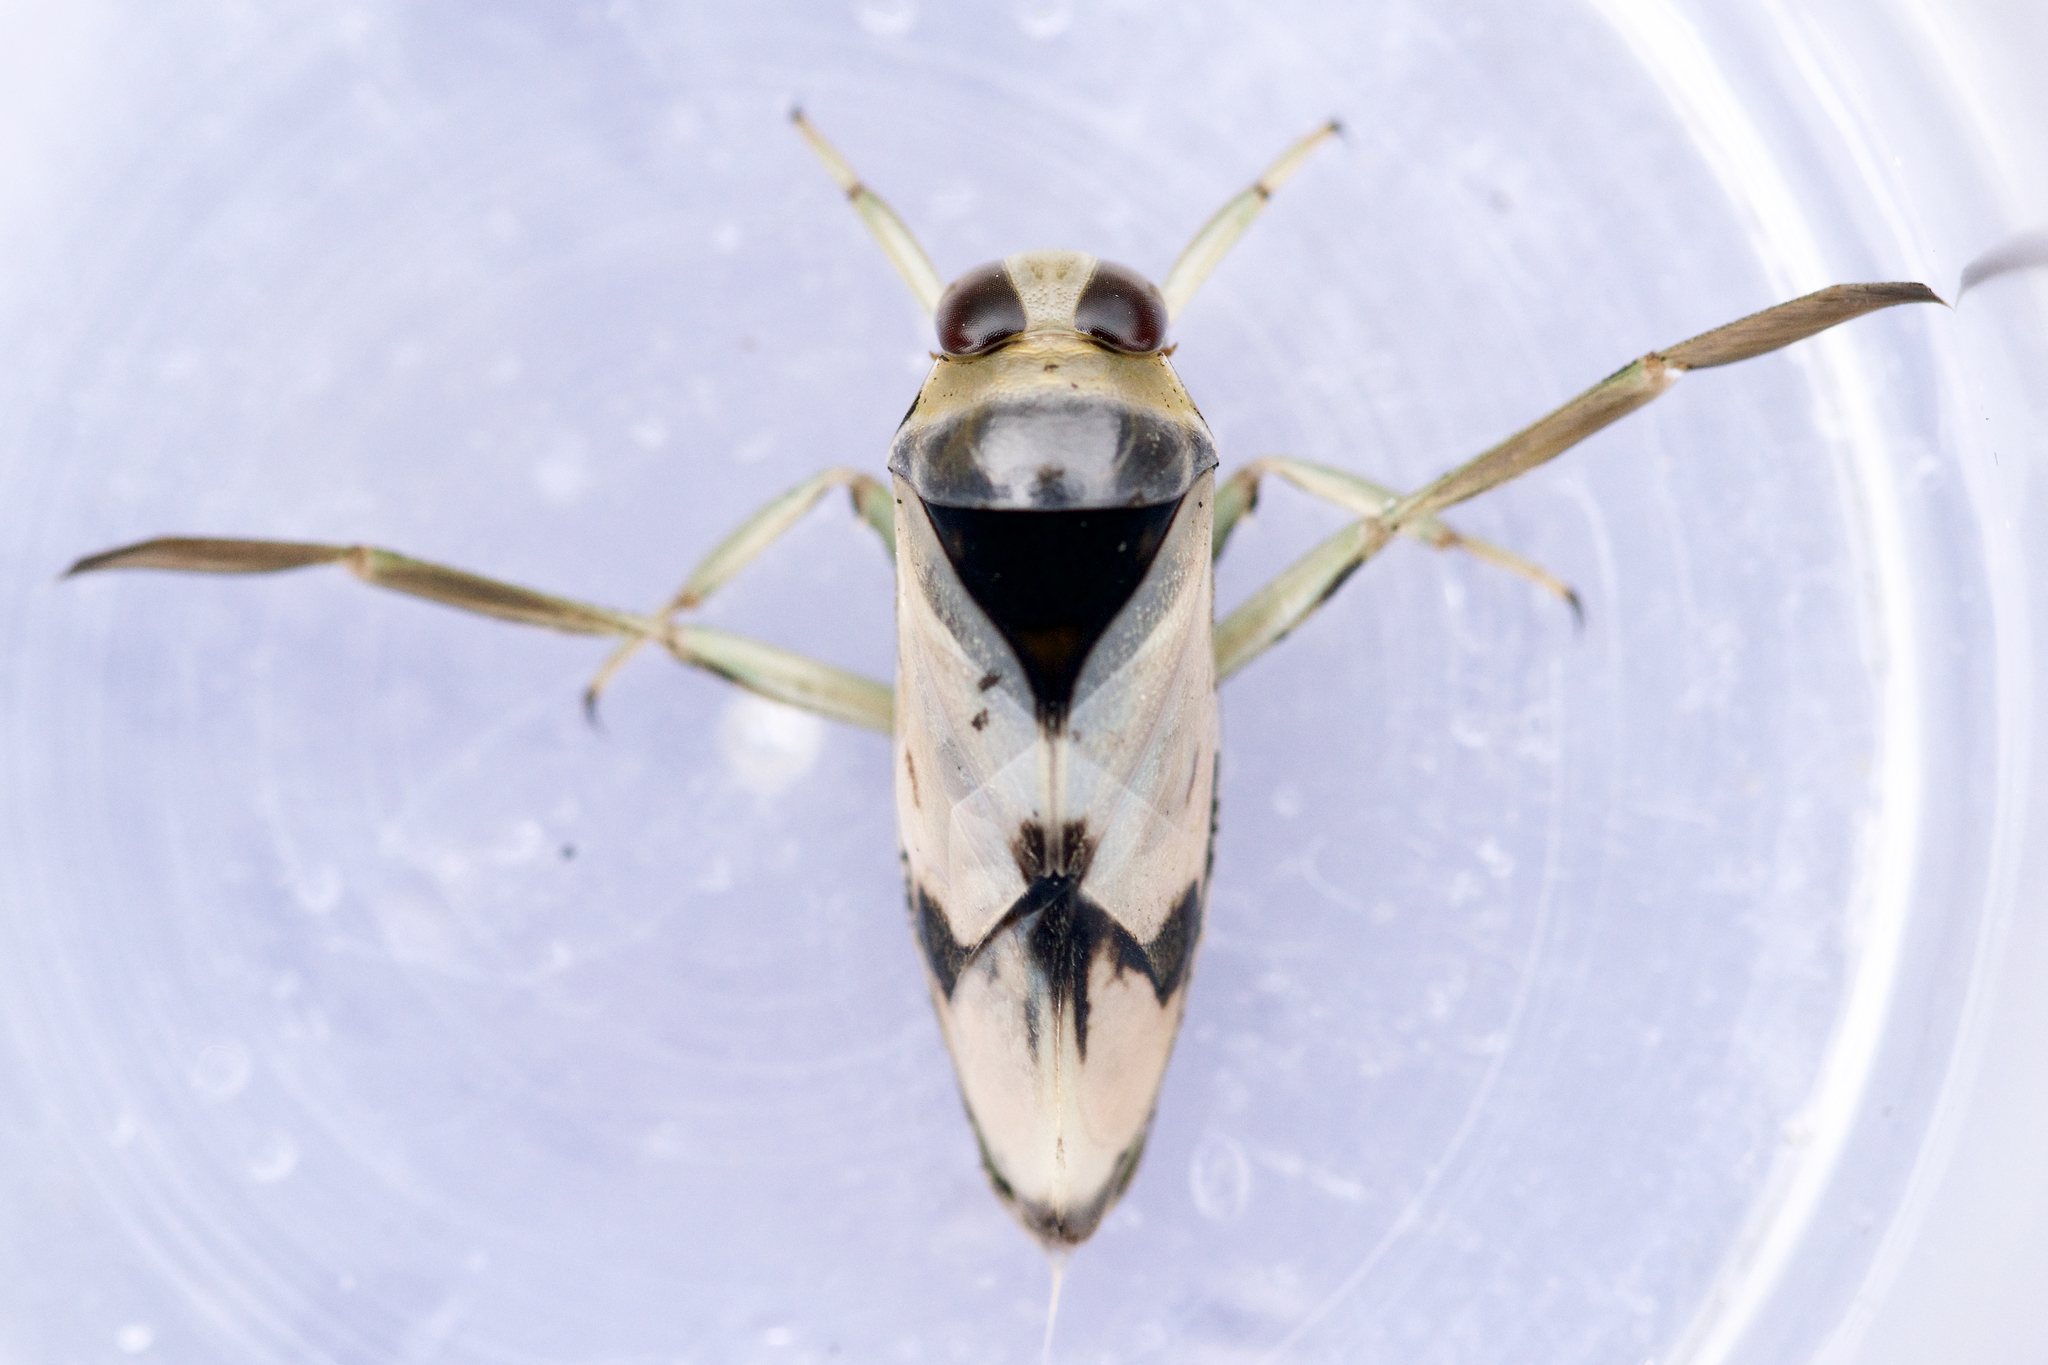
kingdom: Animalia
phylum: Arthropoda
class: Insecta
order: Hemiptera
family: Notonectidae
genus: Notonecta
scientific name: Notonecta undulata
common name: Grousewinged backswimmer
